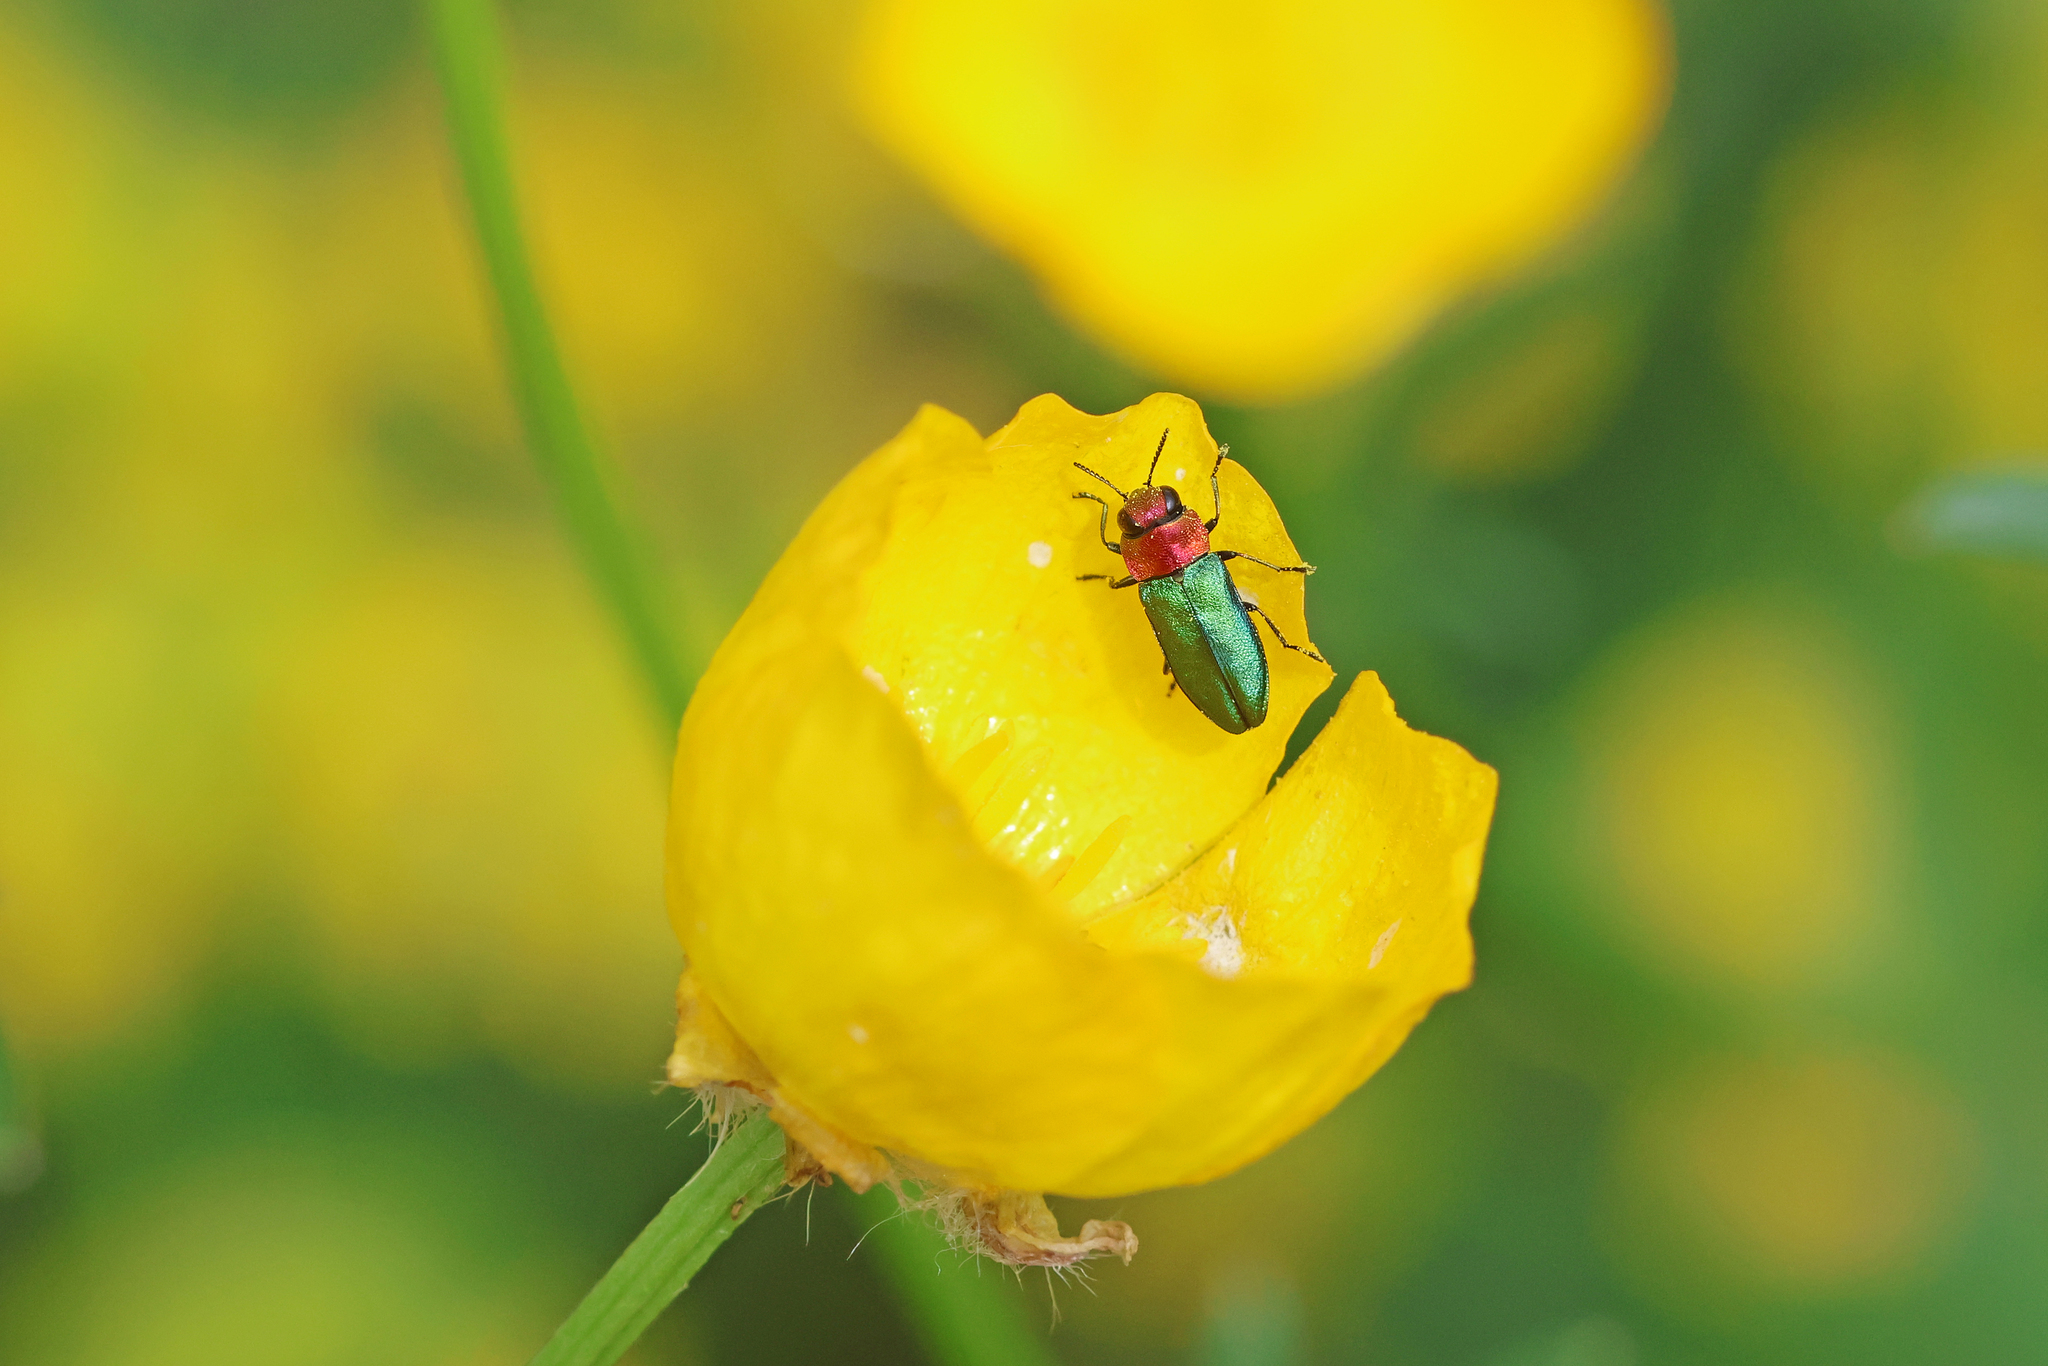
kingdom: Animalia
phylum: Arthropoda
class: Insecta
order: Coleoptera
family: Buprestidae
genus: Anthaxia
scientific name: Anthaxia nitidula
